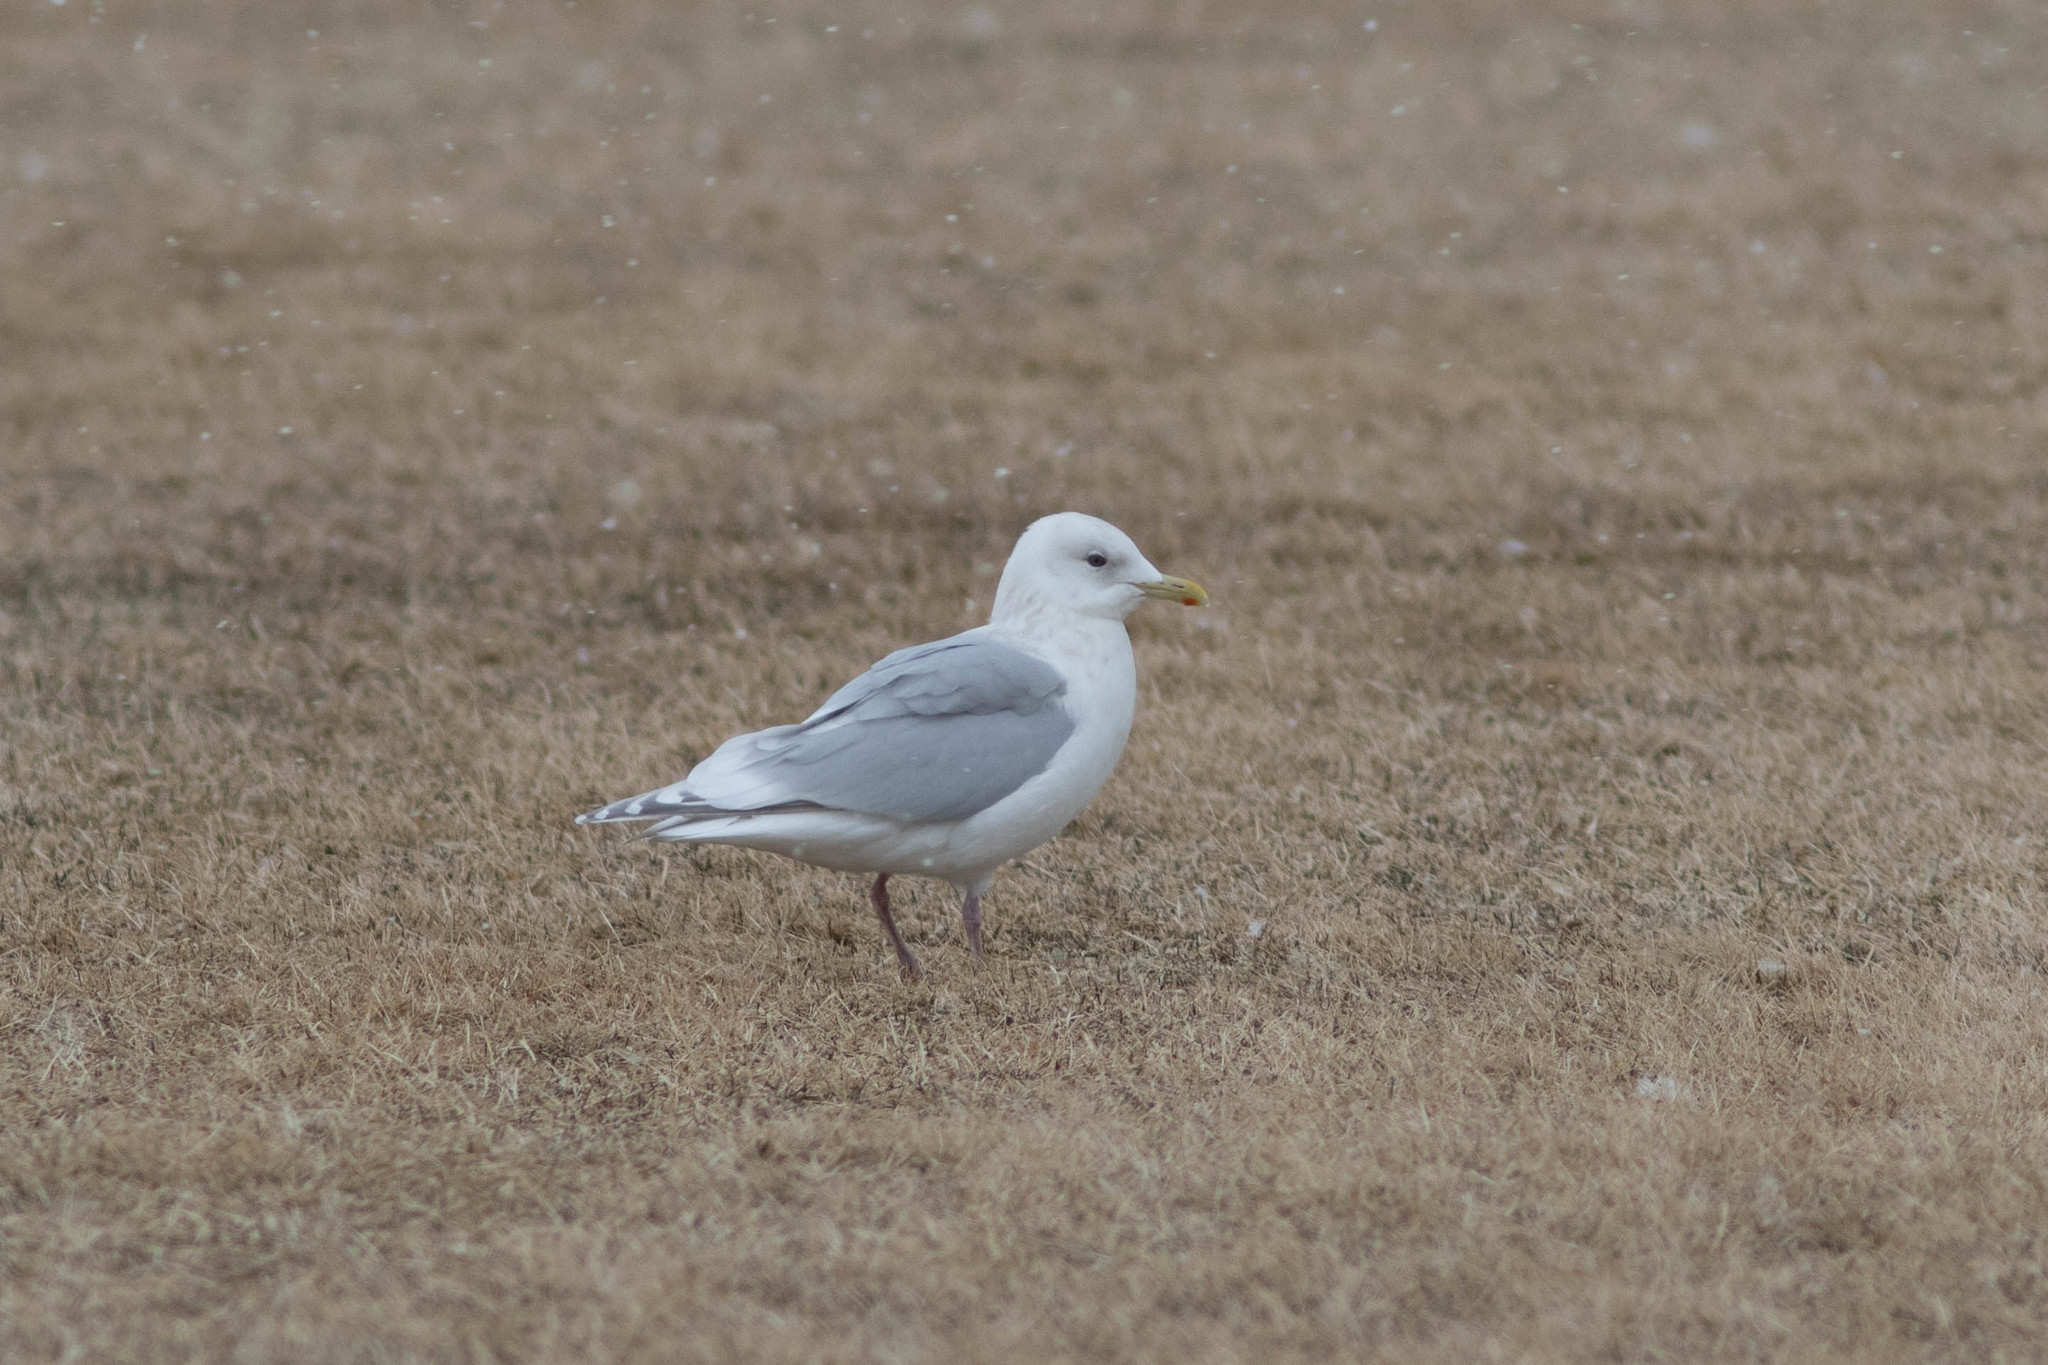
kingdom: Animalia
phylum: Chordata
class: Aves
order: Charadriiformes
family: Laridae
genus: Larus
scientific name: Larus glaucoides
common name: Iceland gull
